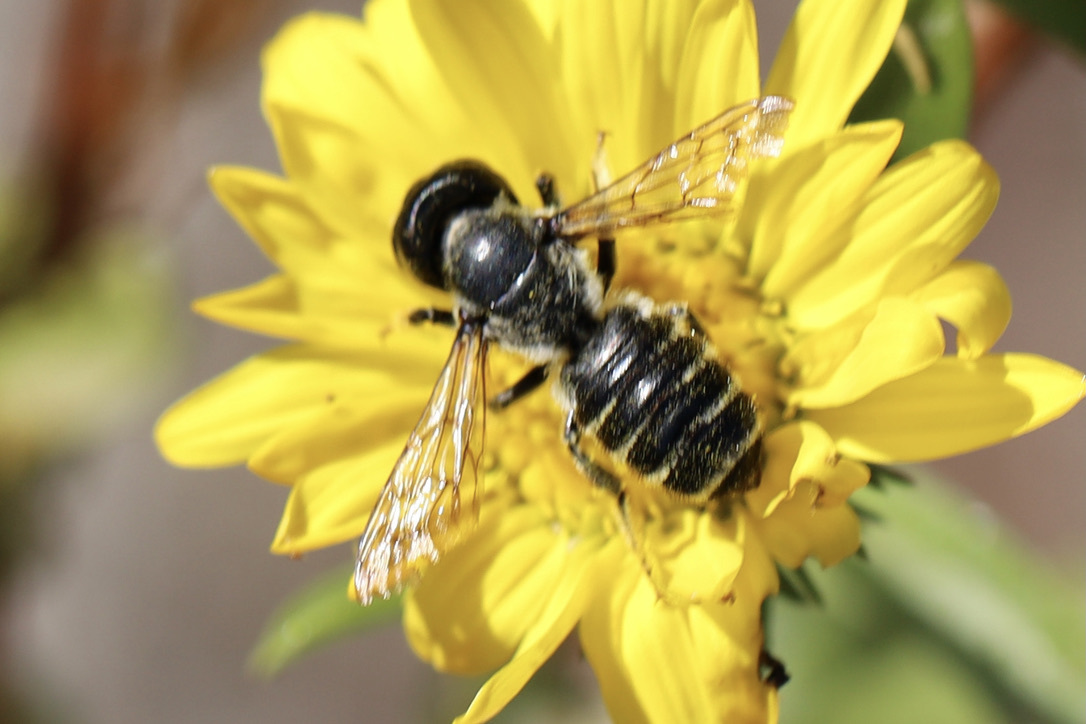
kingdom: Animalia
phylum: Arthropoda
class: Insecta
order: Hymenoptera
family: Megachilidae
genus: Megachile
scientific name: Megachile pugnata
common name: Pugnacious leafcutter bee
